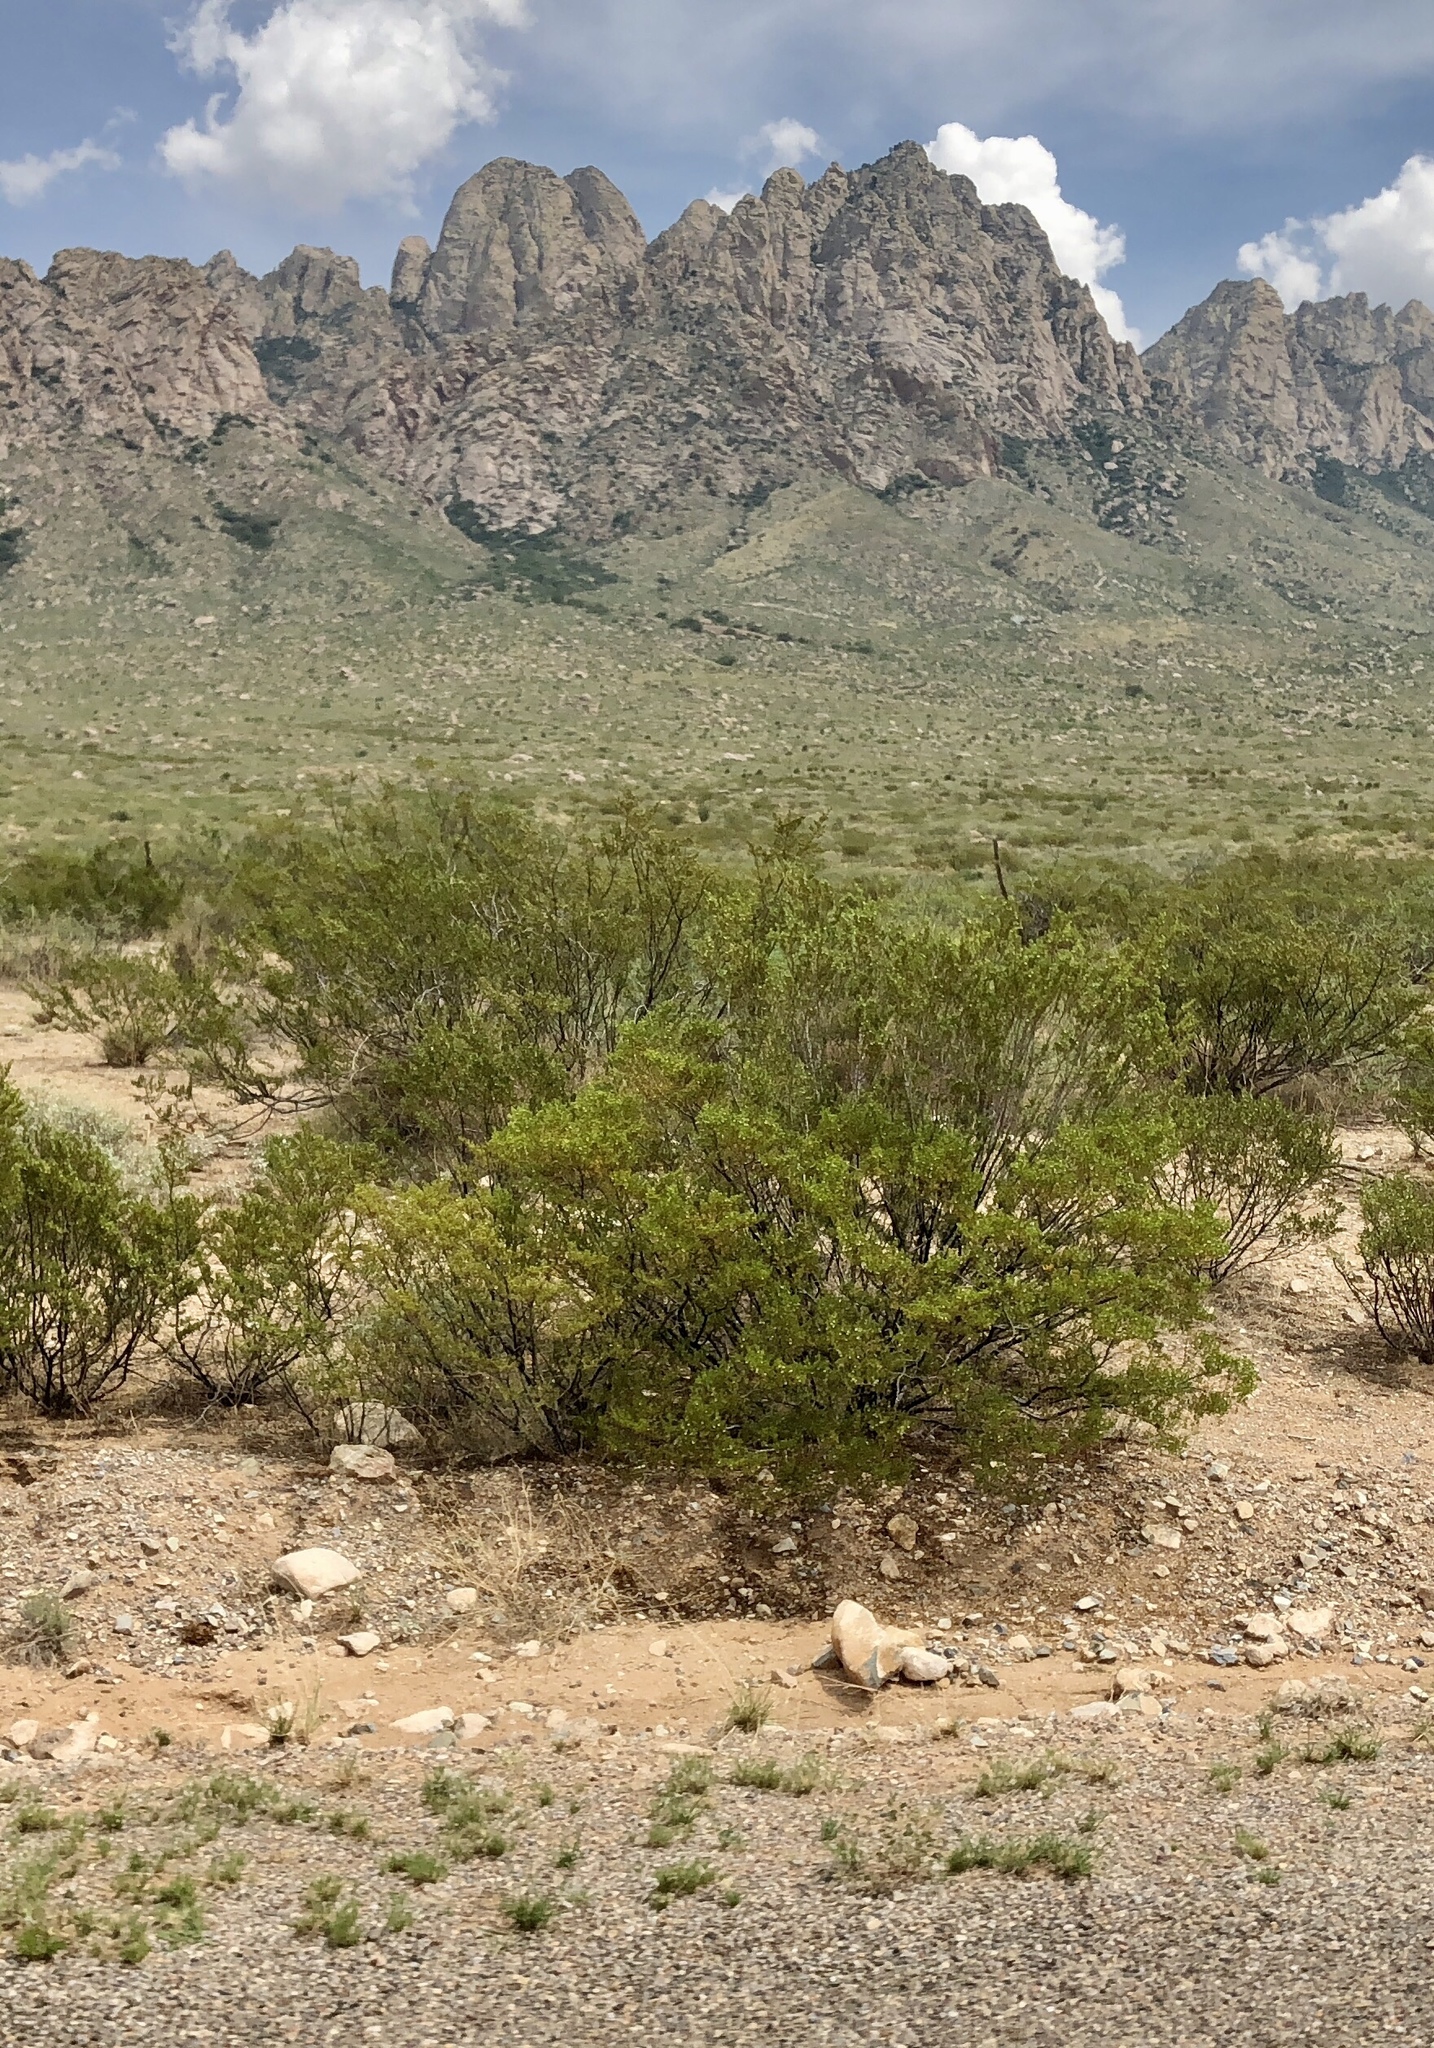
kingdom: Plantae
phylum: Tracheophyta
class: Magnoliopsida
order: Zygophyllales
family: Zygophyllaceae
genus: Larrea
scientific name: Larrea tridentata
